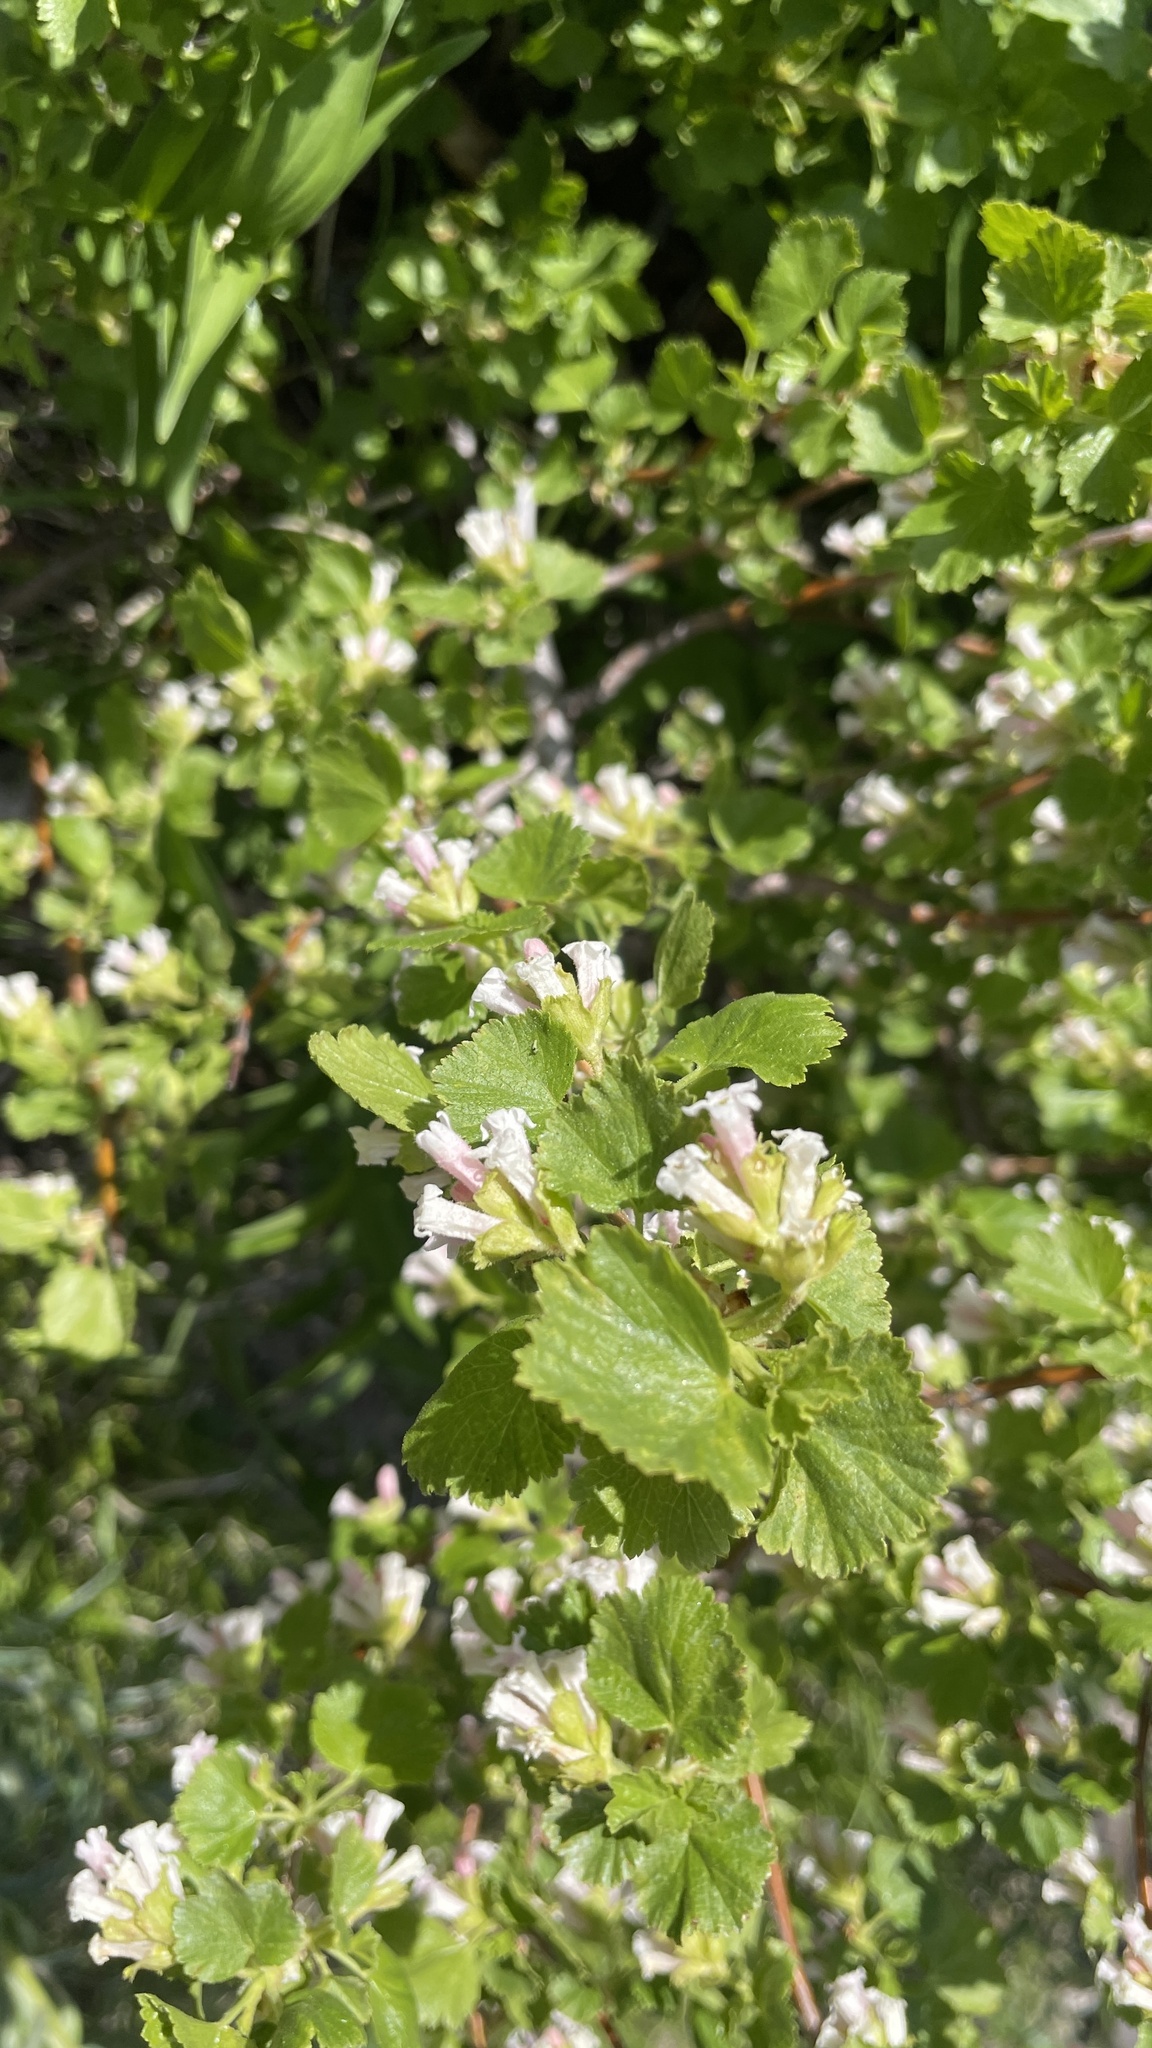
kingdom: Plantae
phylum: Tracheophyta
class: Magnoliopsida
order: Saxifragales
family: Grossulariaceae
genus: Ribes
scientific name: Ribes cereum
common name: Wax currant
